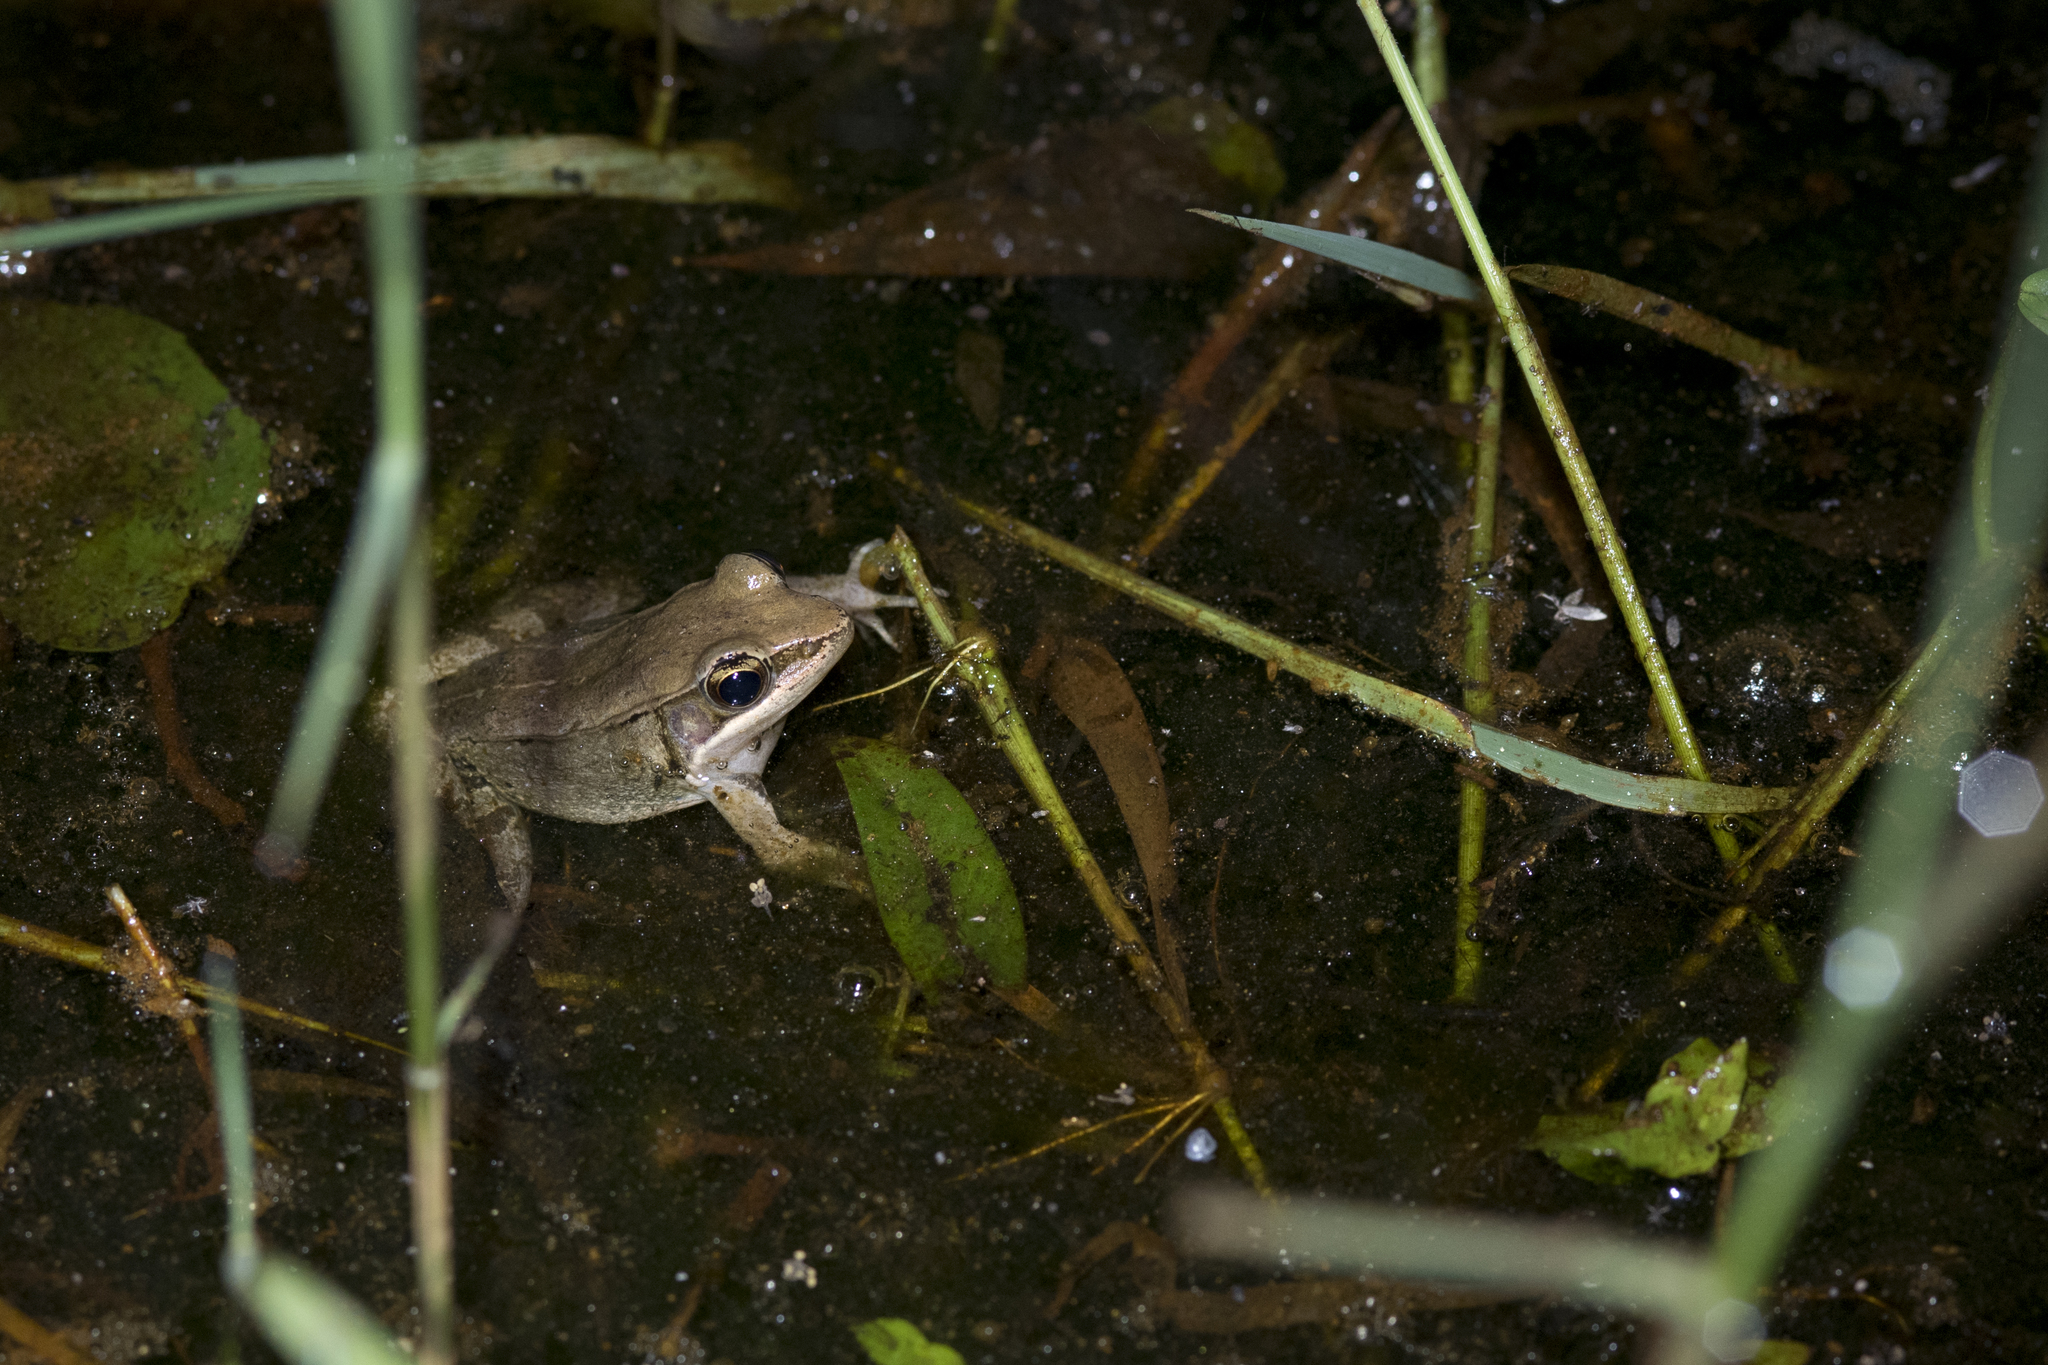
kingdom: Animalia
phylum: Chordata
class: Amphibia
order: Anura
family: Ranidae
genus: Nidirana
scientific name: Nidirana adenopleura
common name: Olive frog
